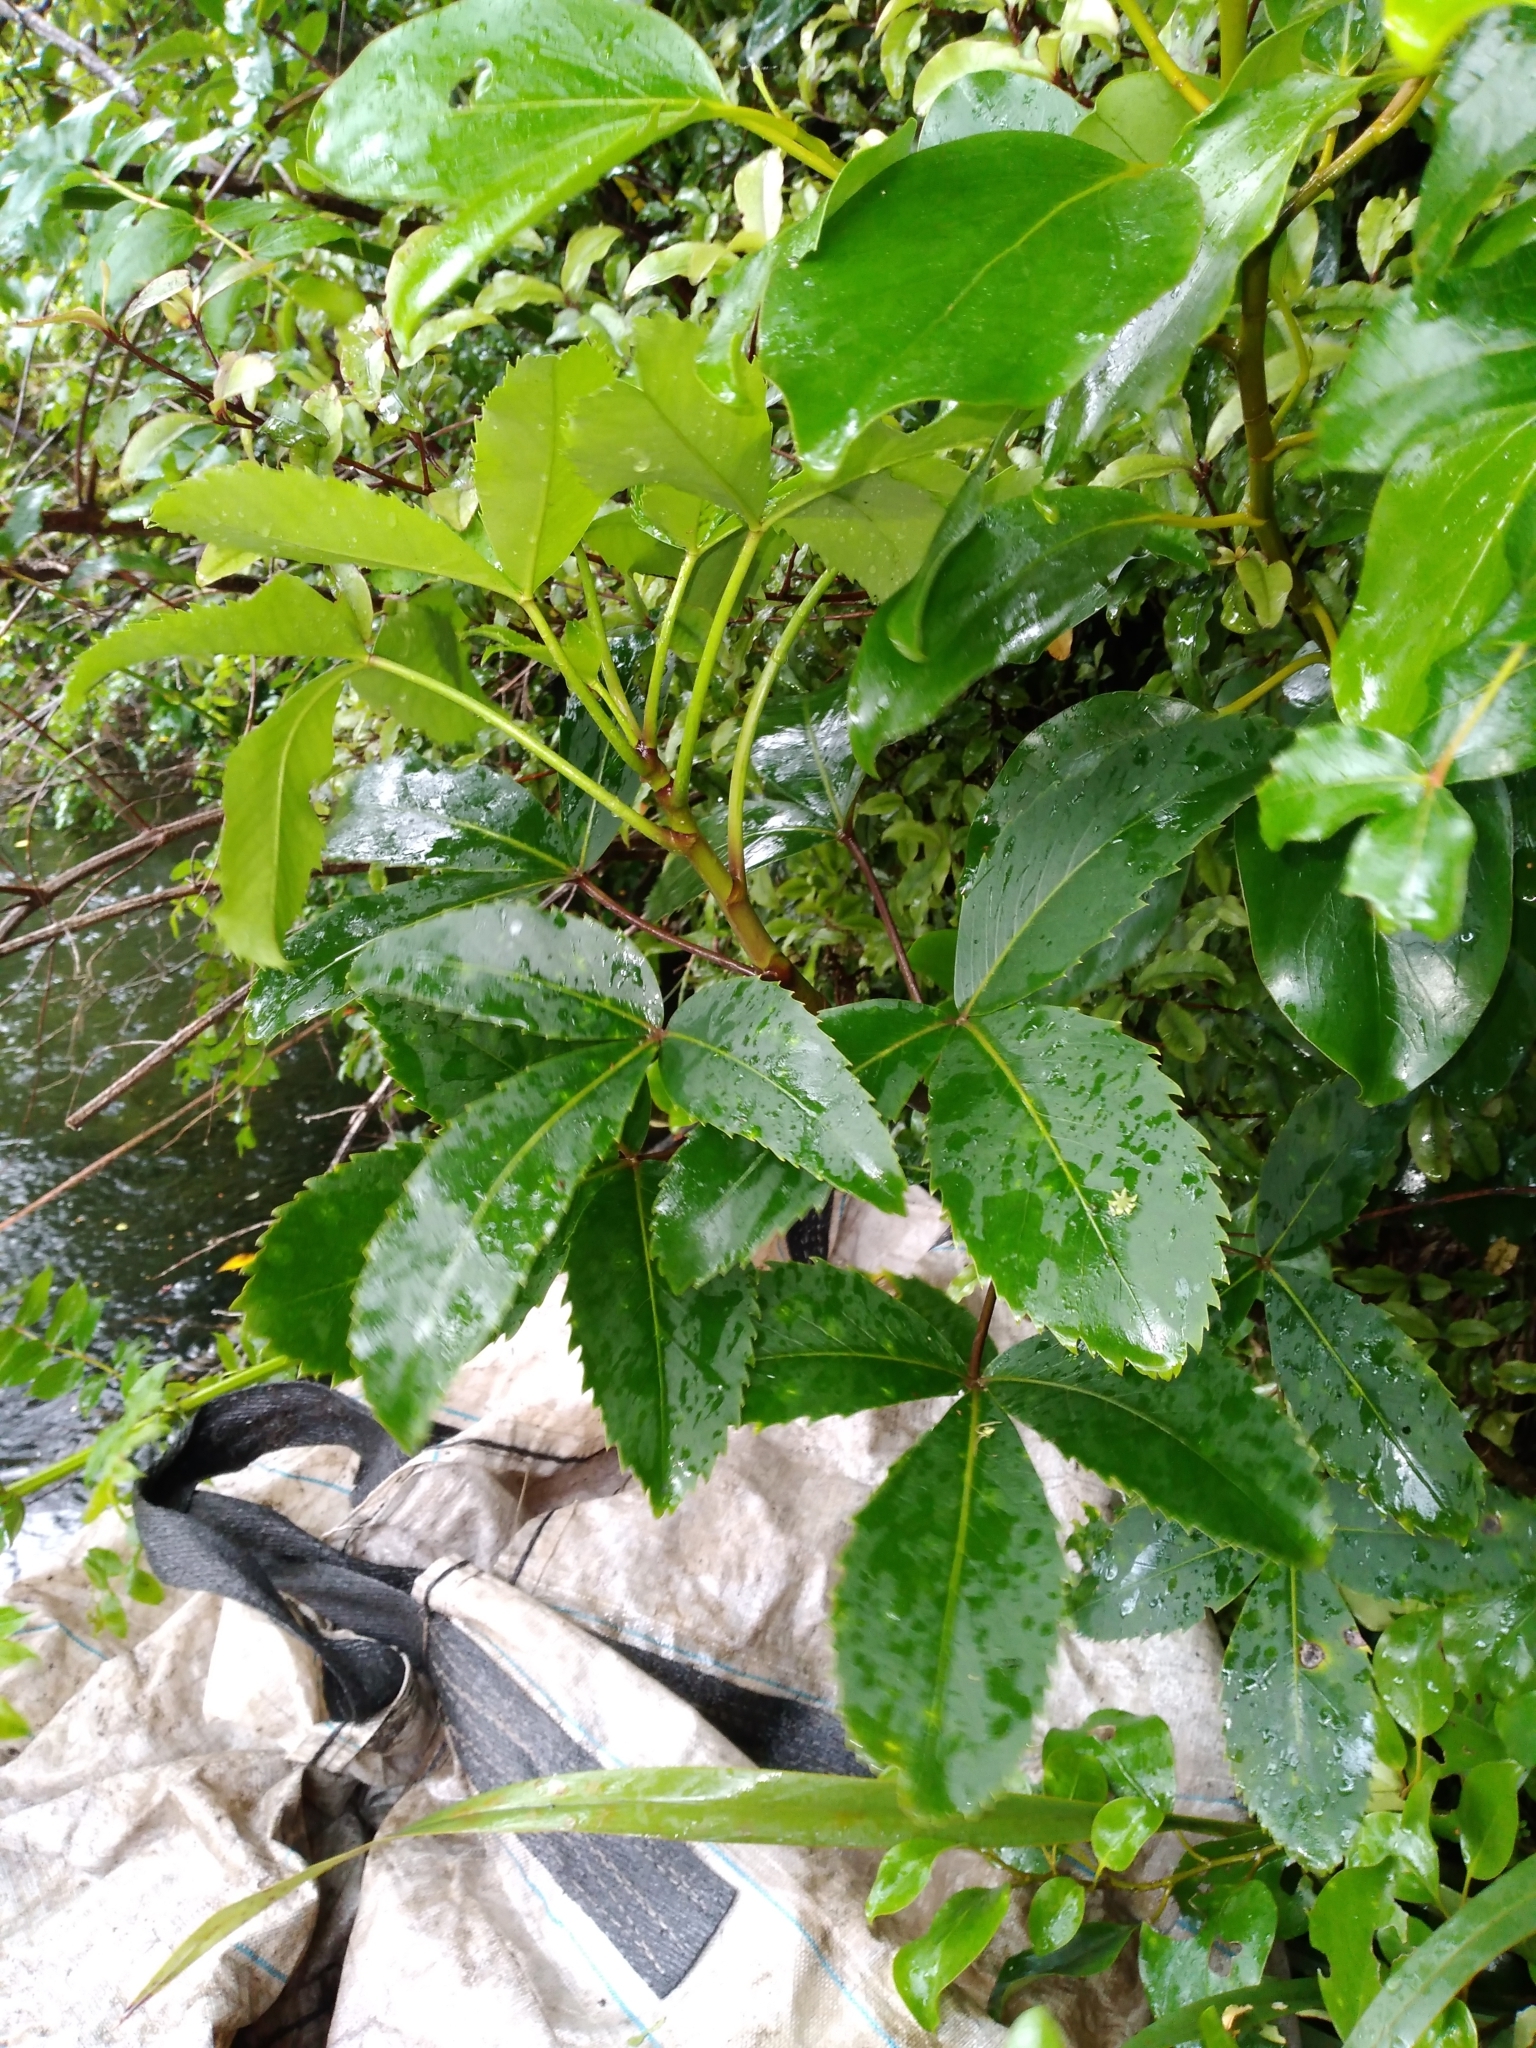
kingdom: Plantae
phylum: Tracheophyta
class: Magnoliopsida
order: Apiales
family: Araliaceae
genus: Neopanax
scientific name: Neopanax colensoi
